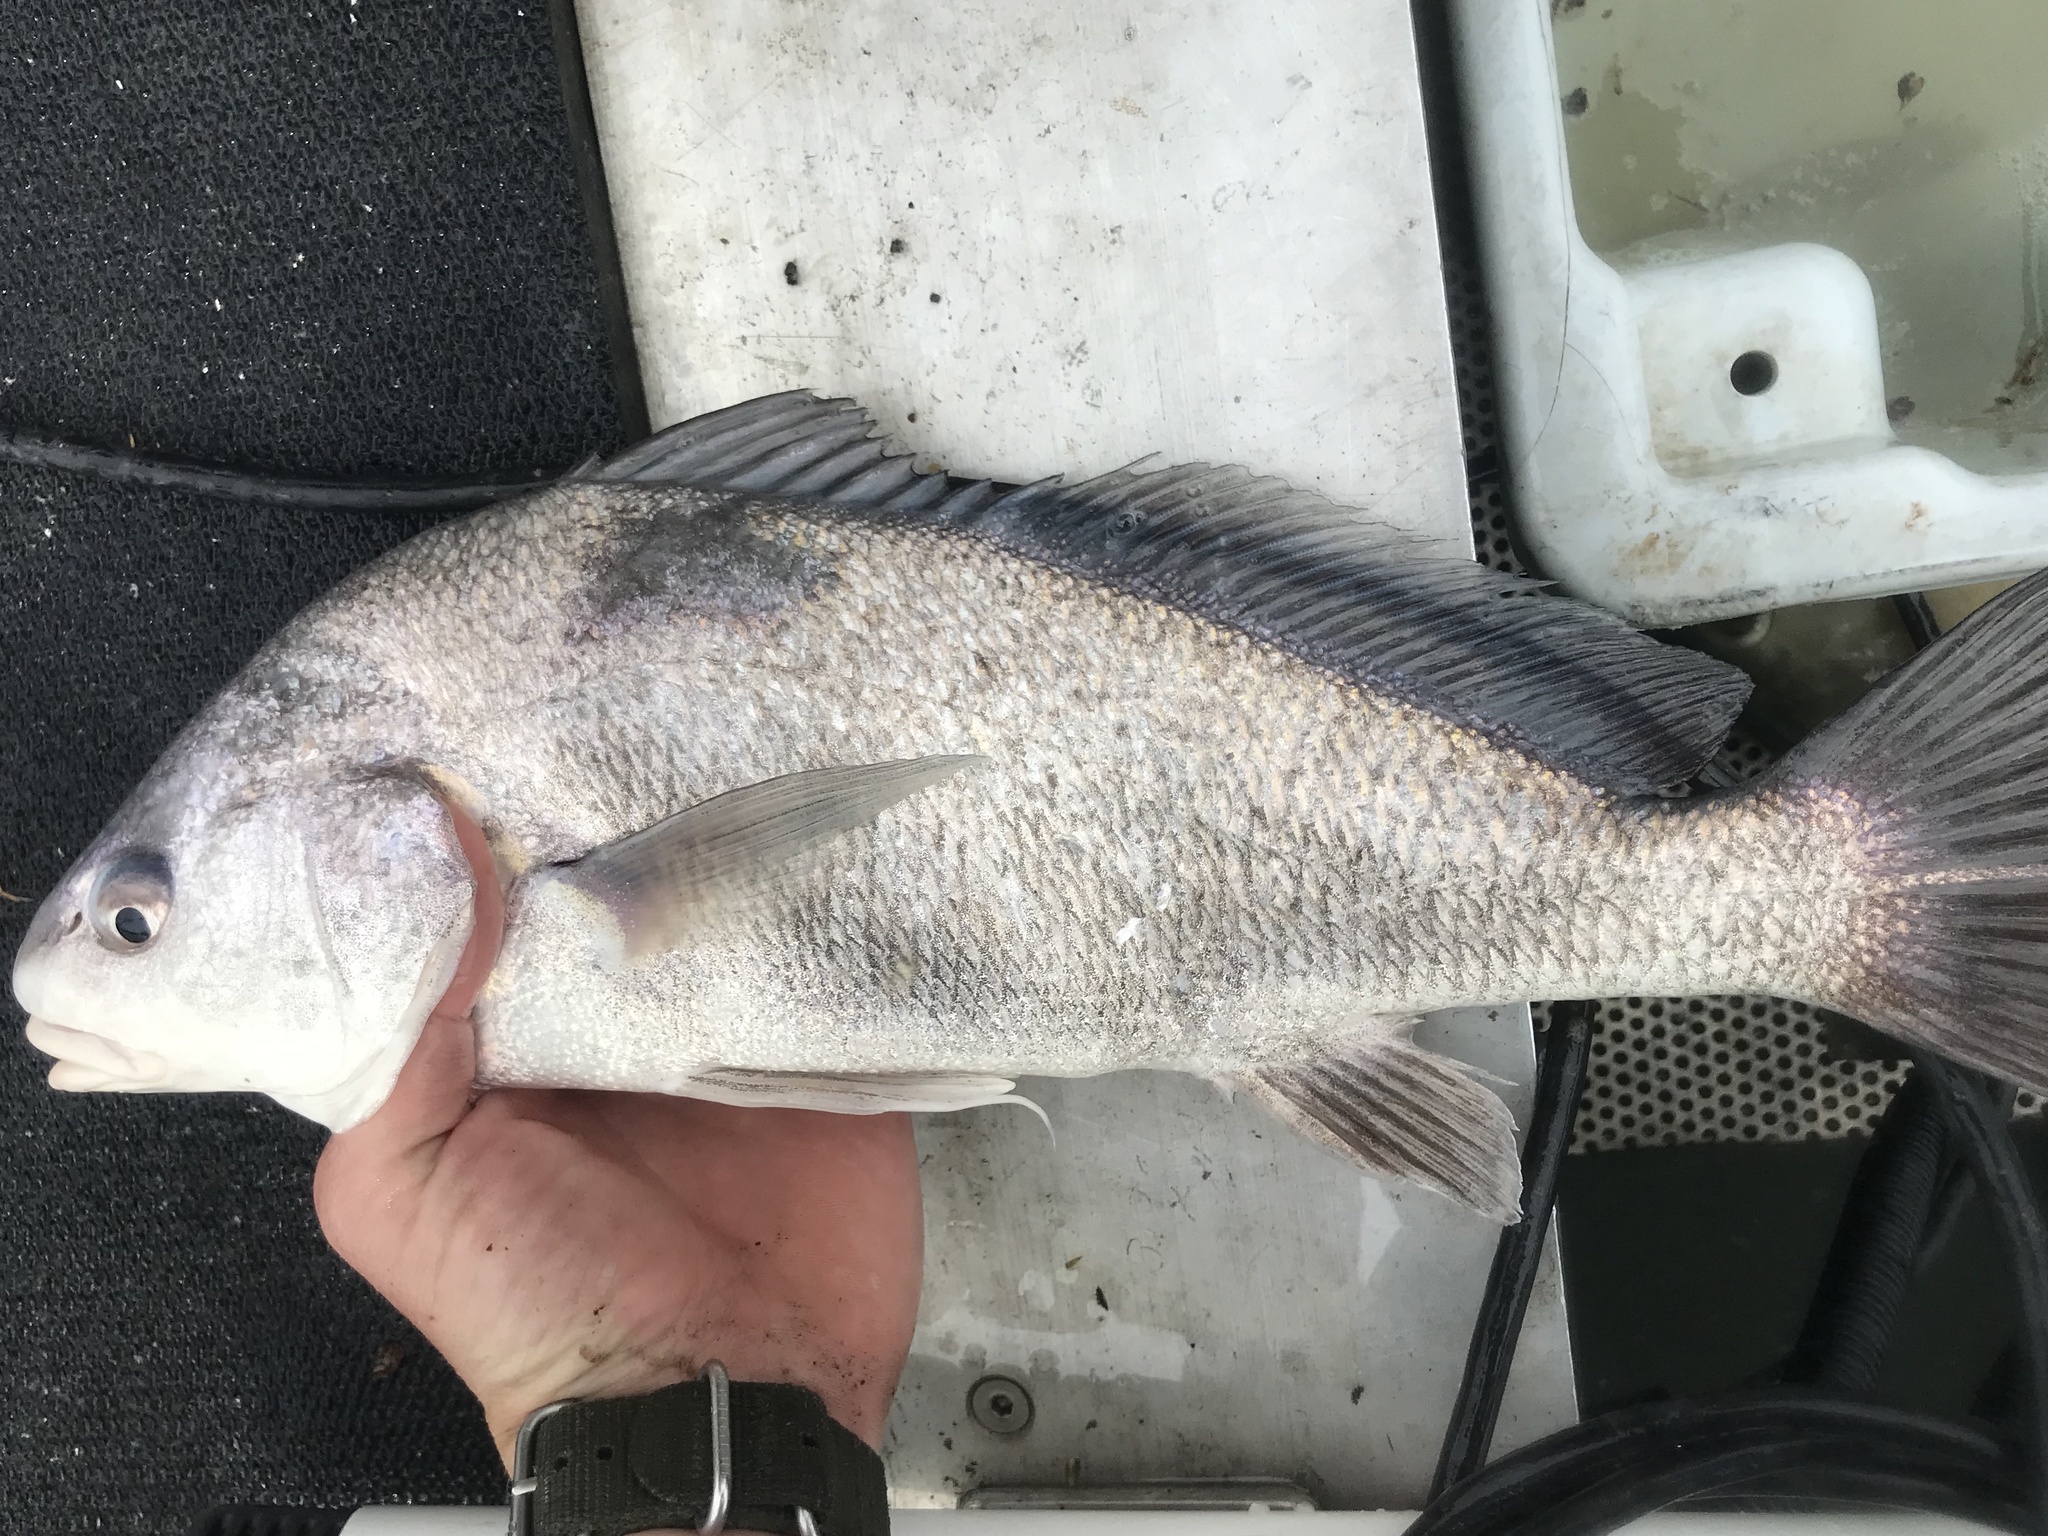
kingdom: Animalia
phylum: Chordata
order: Perciformes
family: Sciaenidae
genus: Aplodinotus
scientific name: Aplodinotus grunniens
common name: Freshwater drum
